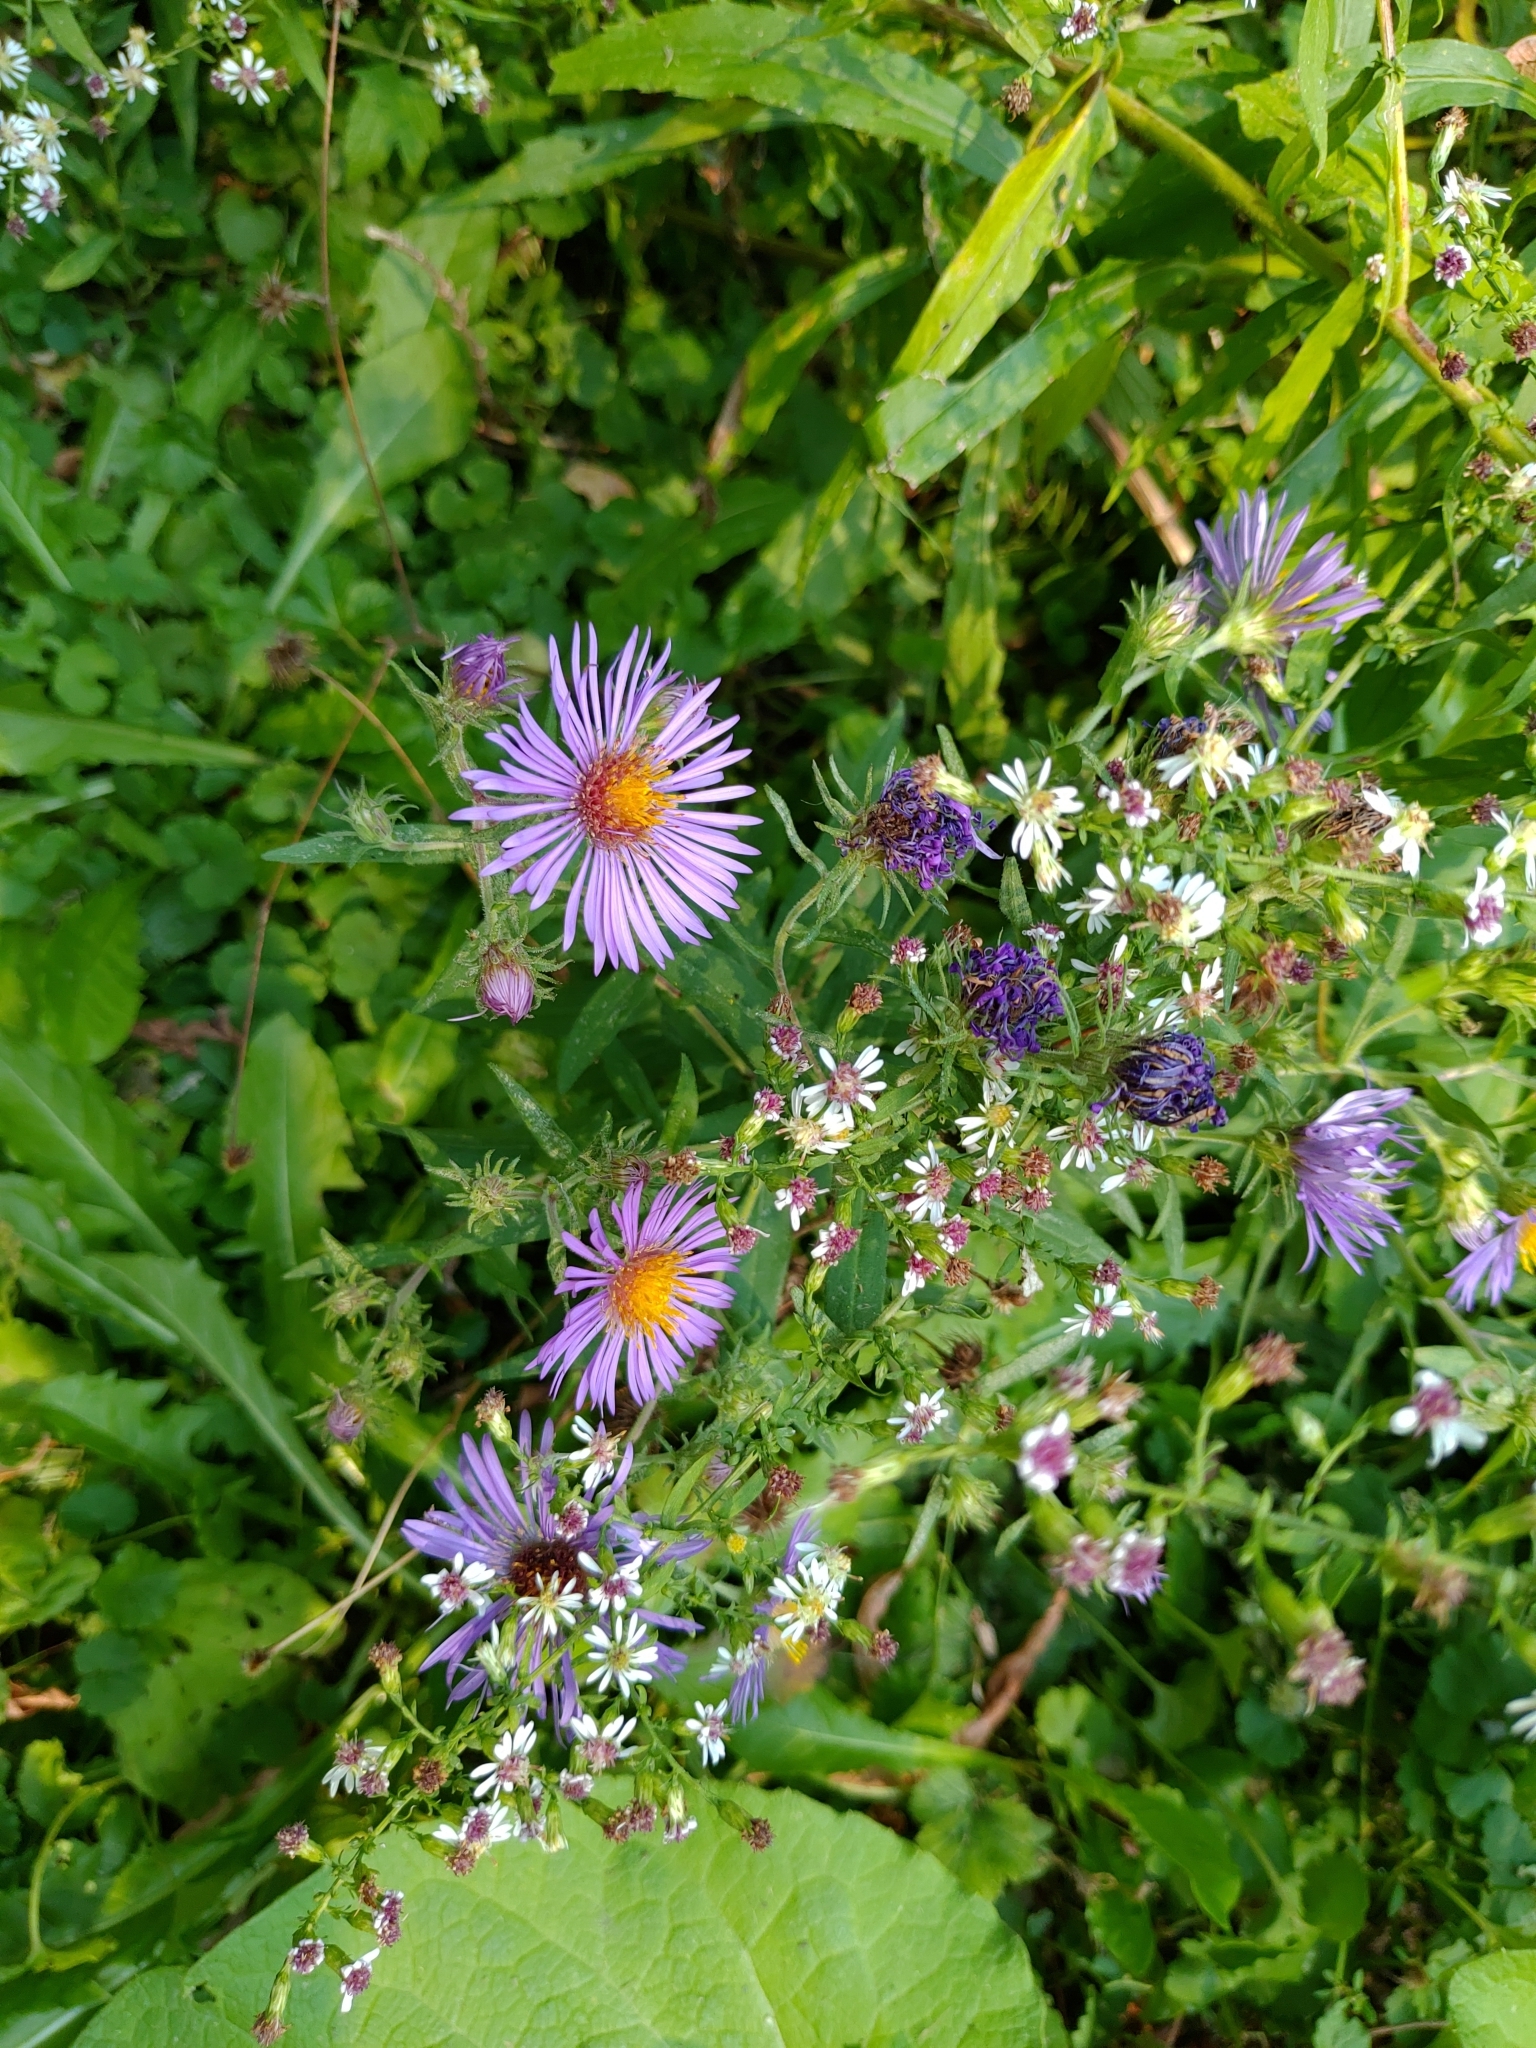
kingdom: Plantae
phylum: Tracheophyta
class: Magnoliopsida
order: Asterales
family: Asteraceae
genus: Symphyotrichum
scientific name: Symphyotrichum novae-angliae
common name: Michaelmas daisy
